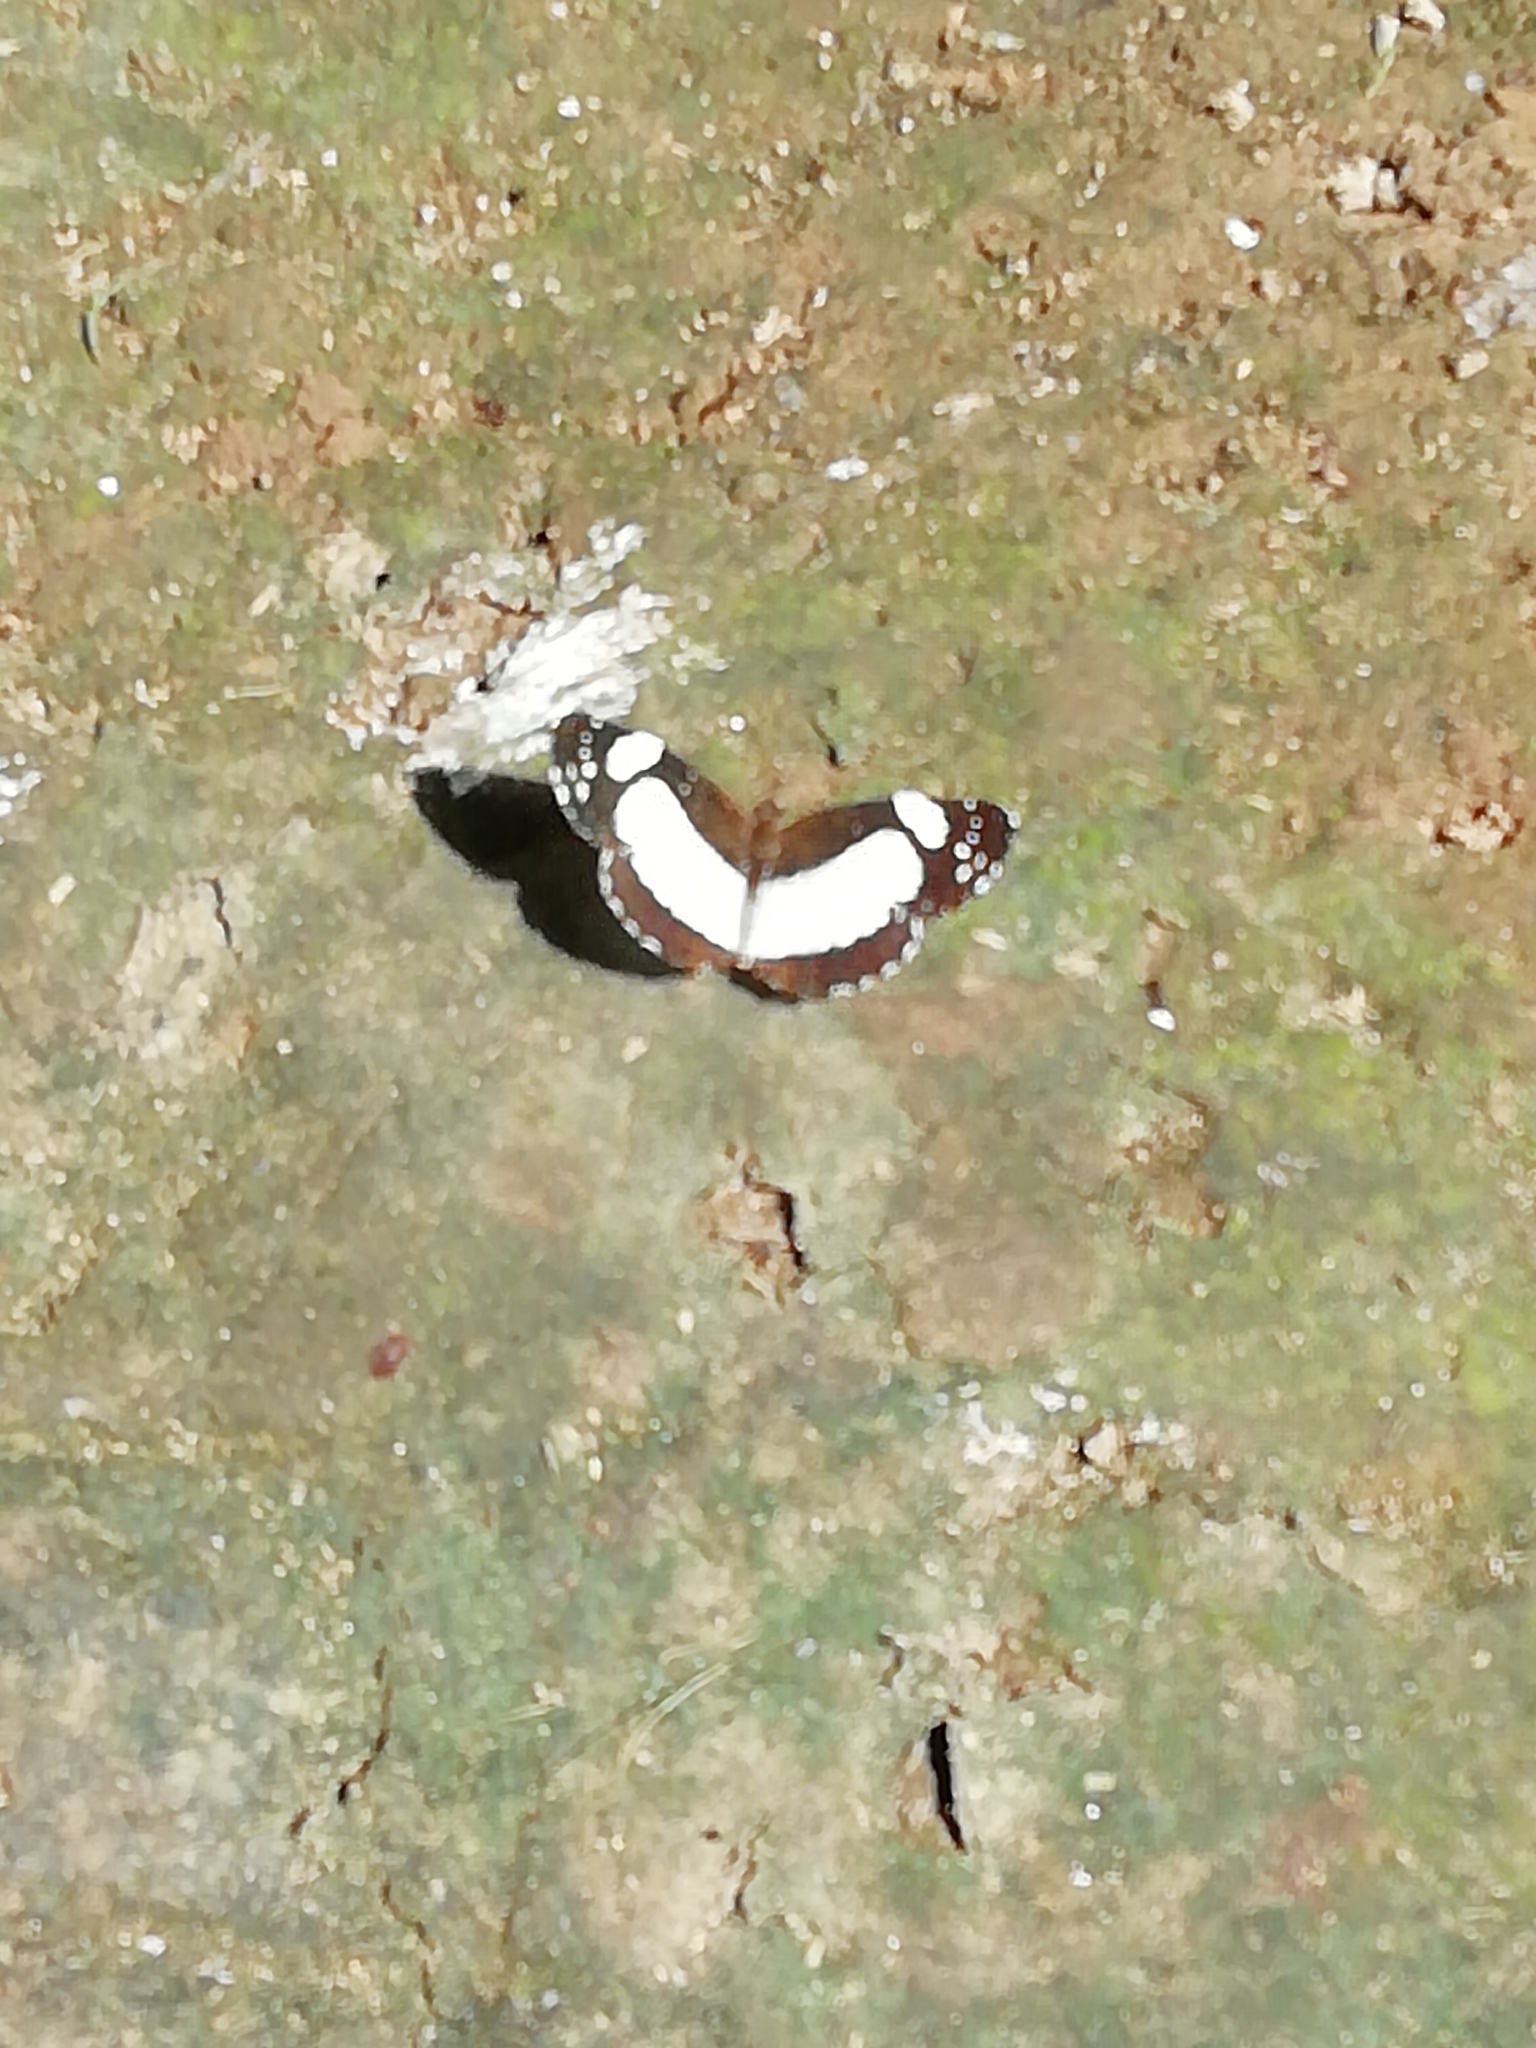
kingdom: Animalia
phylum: Arthropoda
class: Insecta
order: Lepidoptera
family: Nymphalidae
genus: Janatella
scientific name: Janatella leucodesma
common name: Whitened crescent
